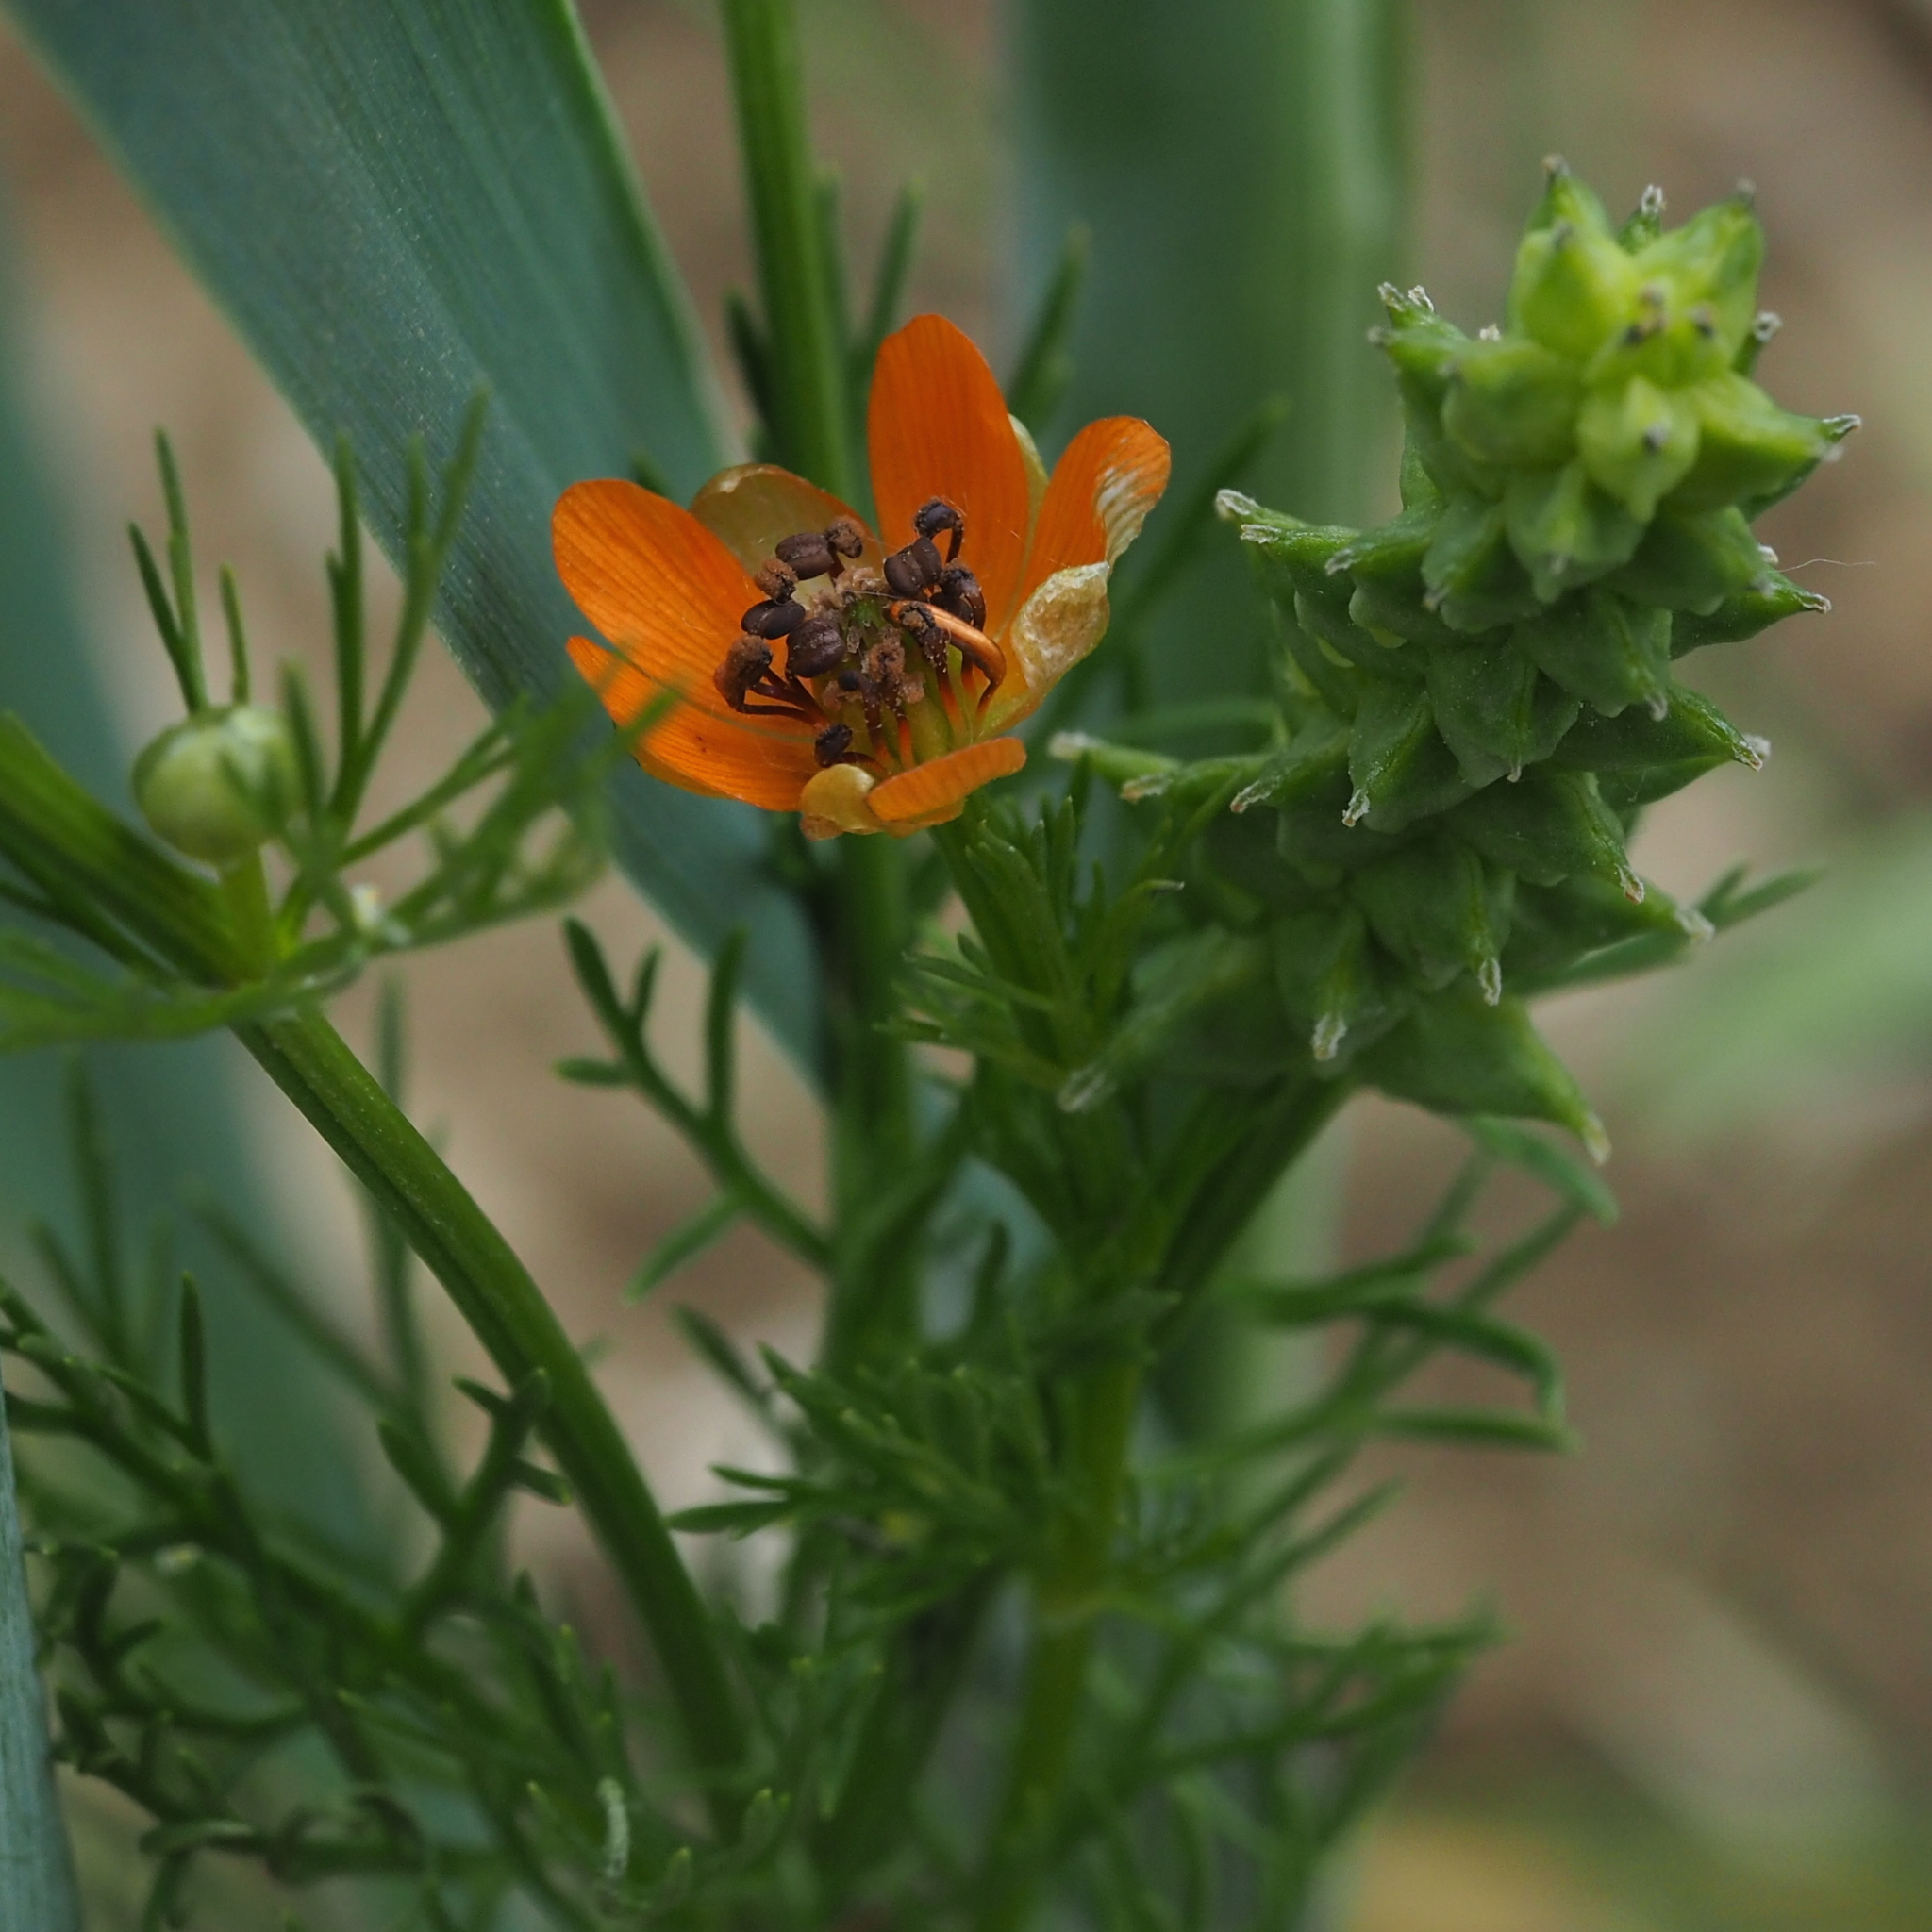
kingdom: Plantae
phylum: Tracheophyta
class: Magnoliopsida
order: Ranunculales
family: Ranunculaceae
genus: Adonis
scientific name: Adonis aestivalis
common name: Summer pheasant's-eye
